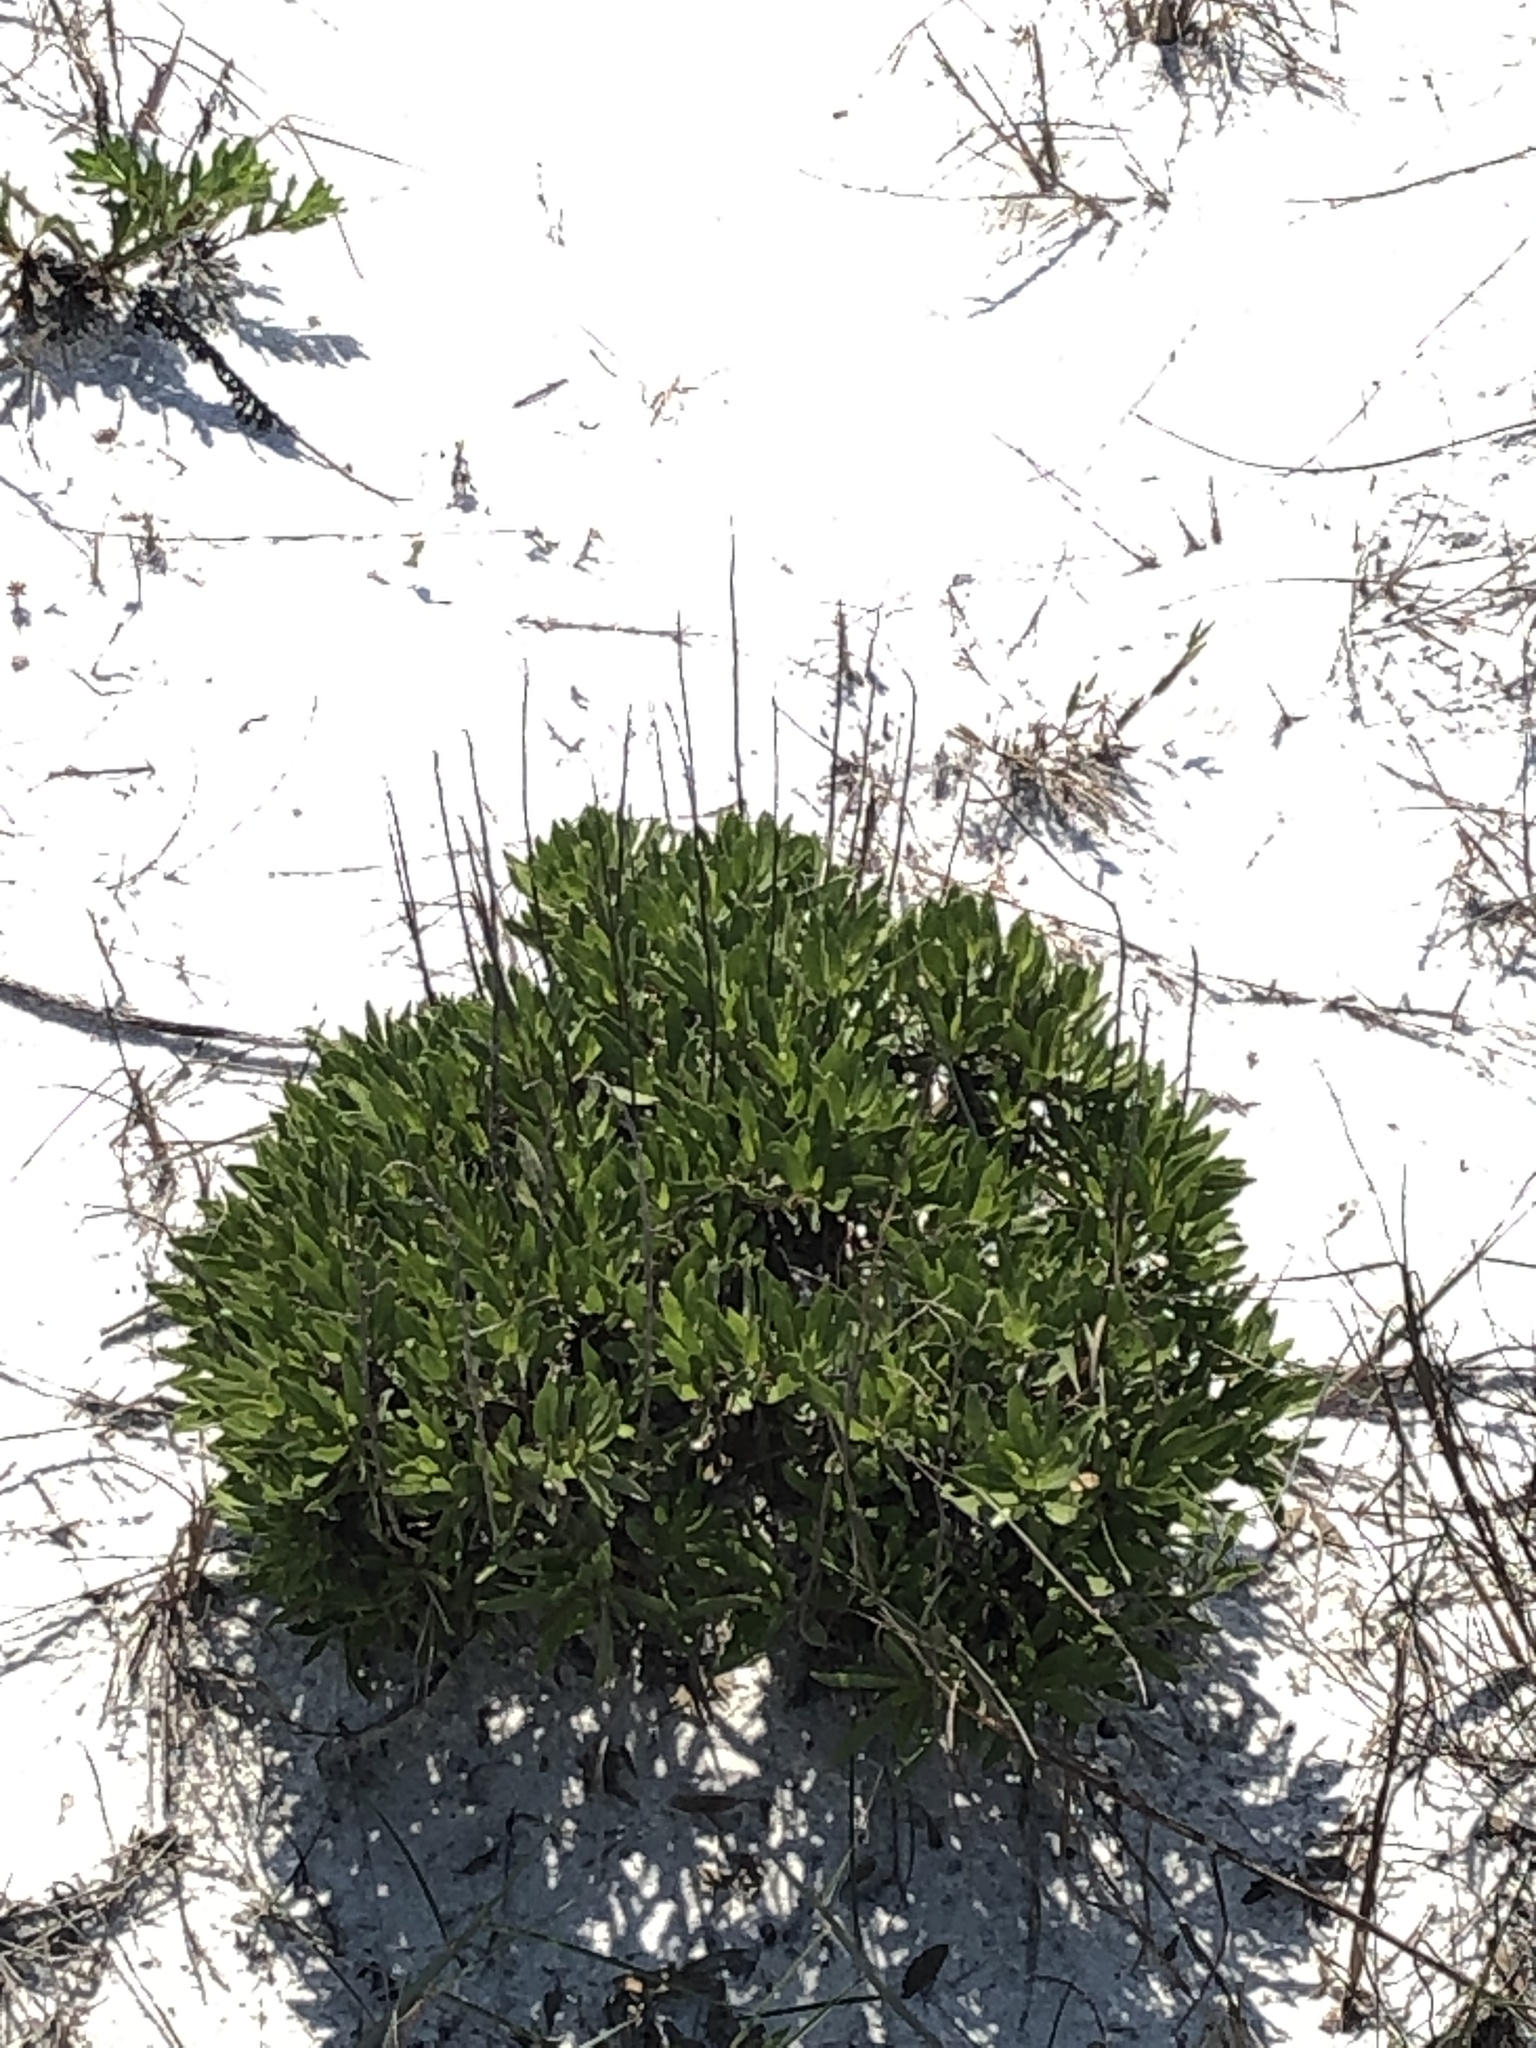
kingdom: Plantae
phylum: Tracheophyta
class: Magnoliopsida
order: Asterales
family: Asteraceae
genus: Chrysoma
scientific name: Chrysoma pauciflosculosa
